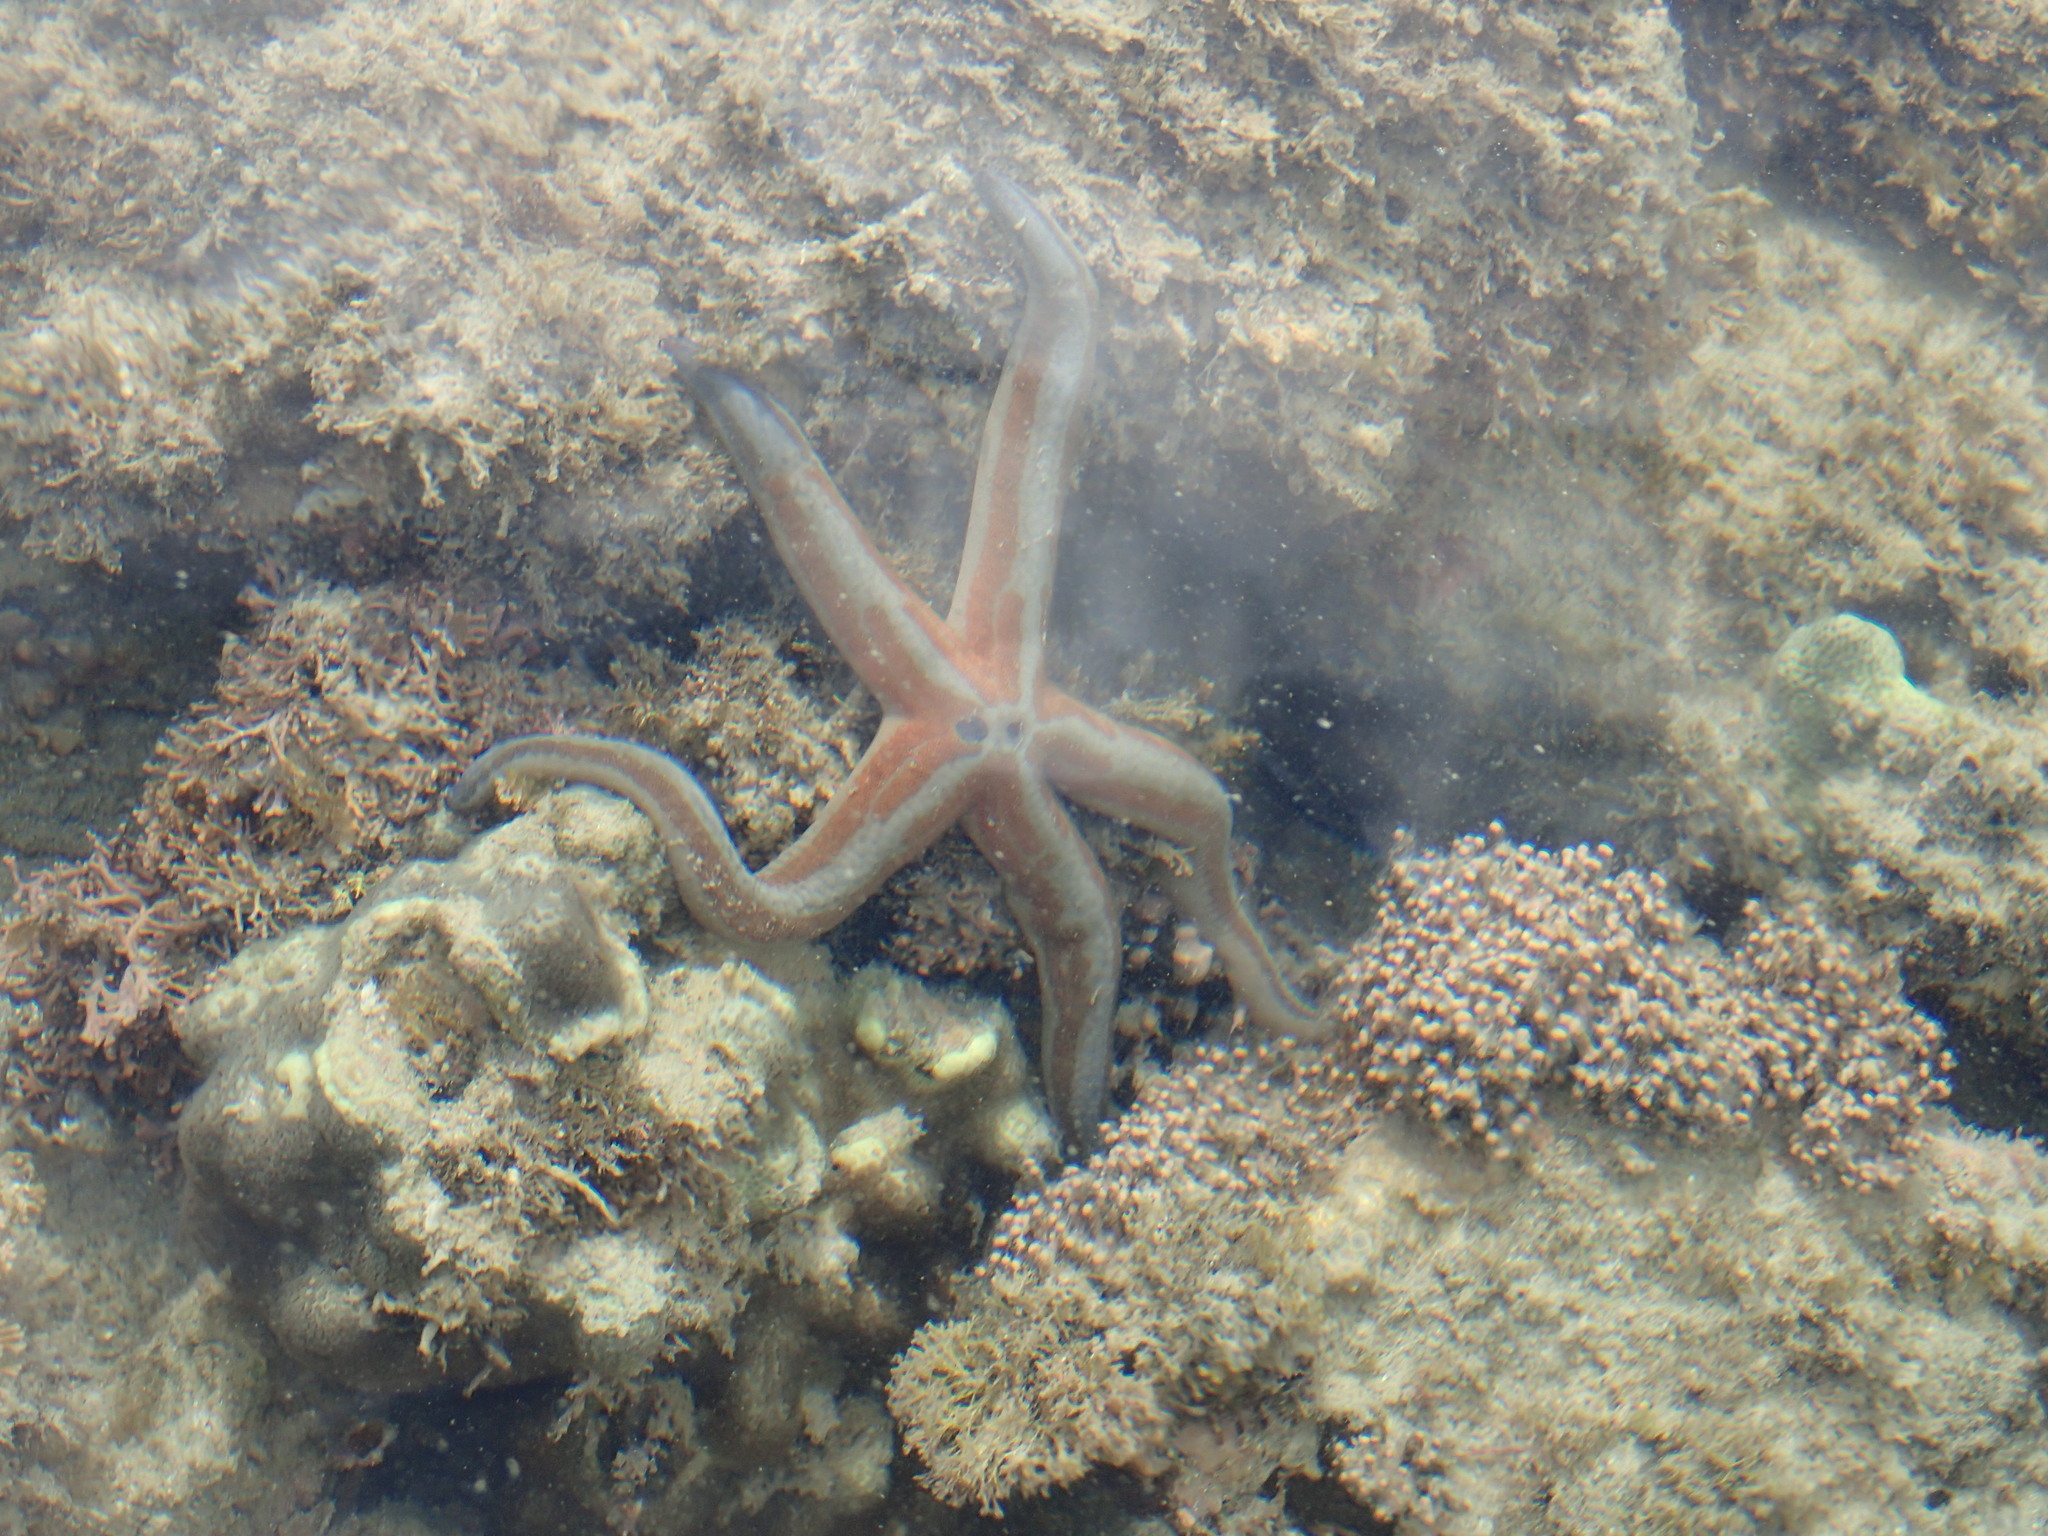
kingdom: Animalia
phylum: Echinodermata
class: Asteroidea
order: Valvatida
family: Ophidiasteridae
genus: Phataria
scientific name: Phataria unifascialis
